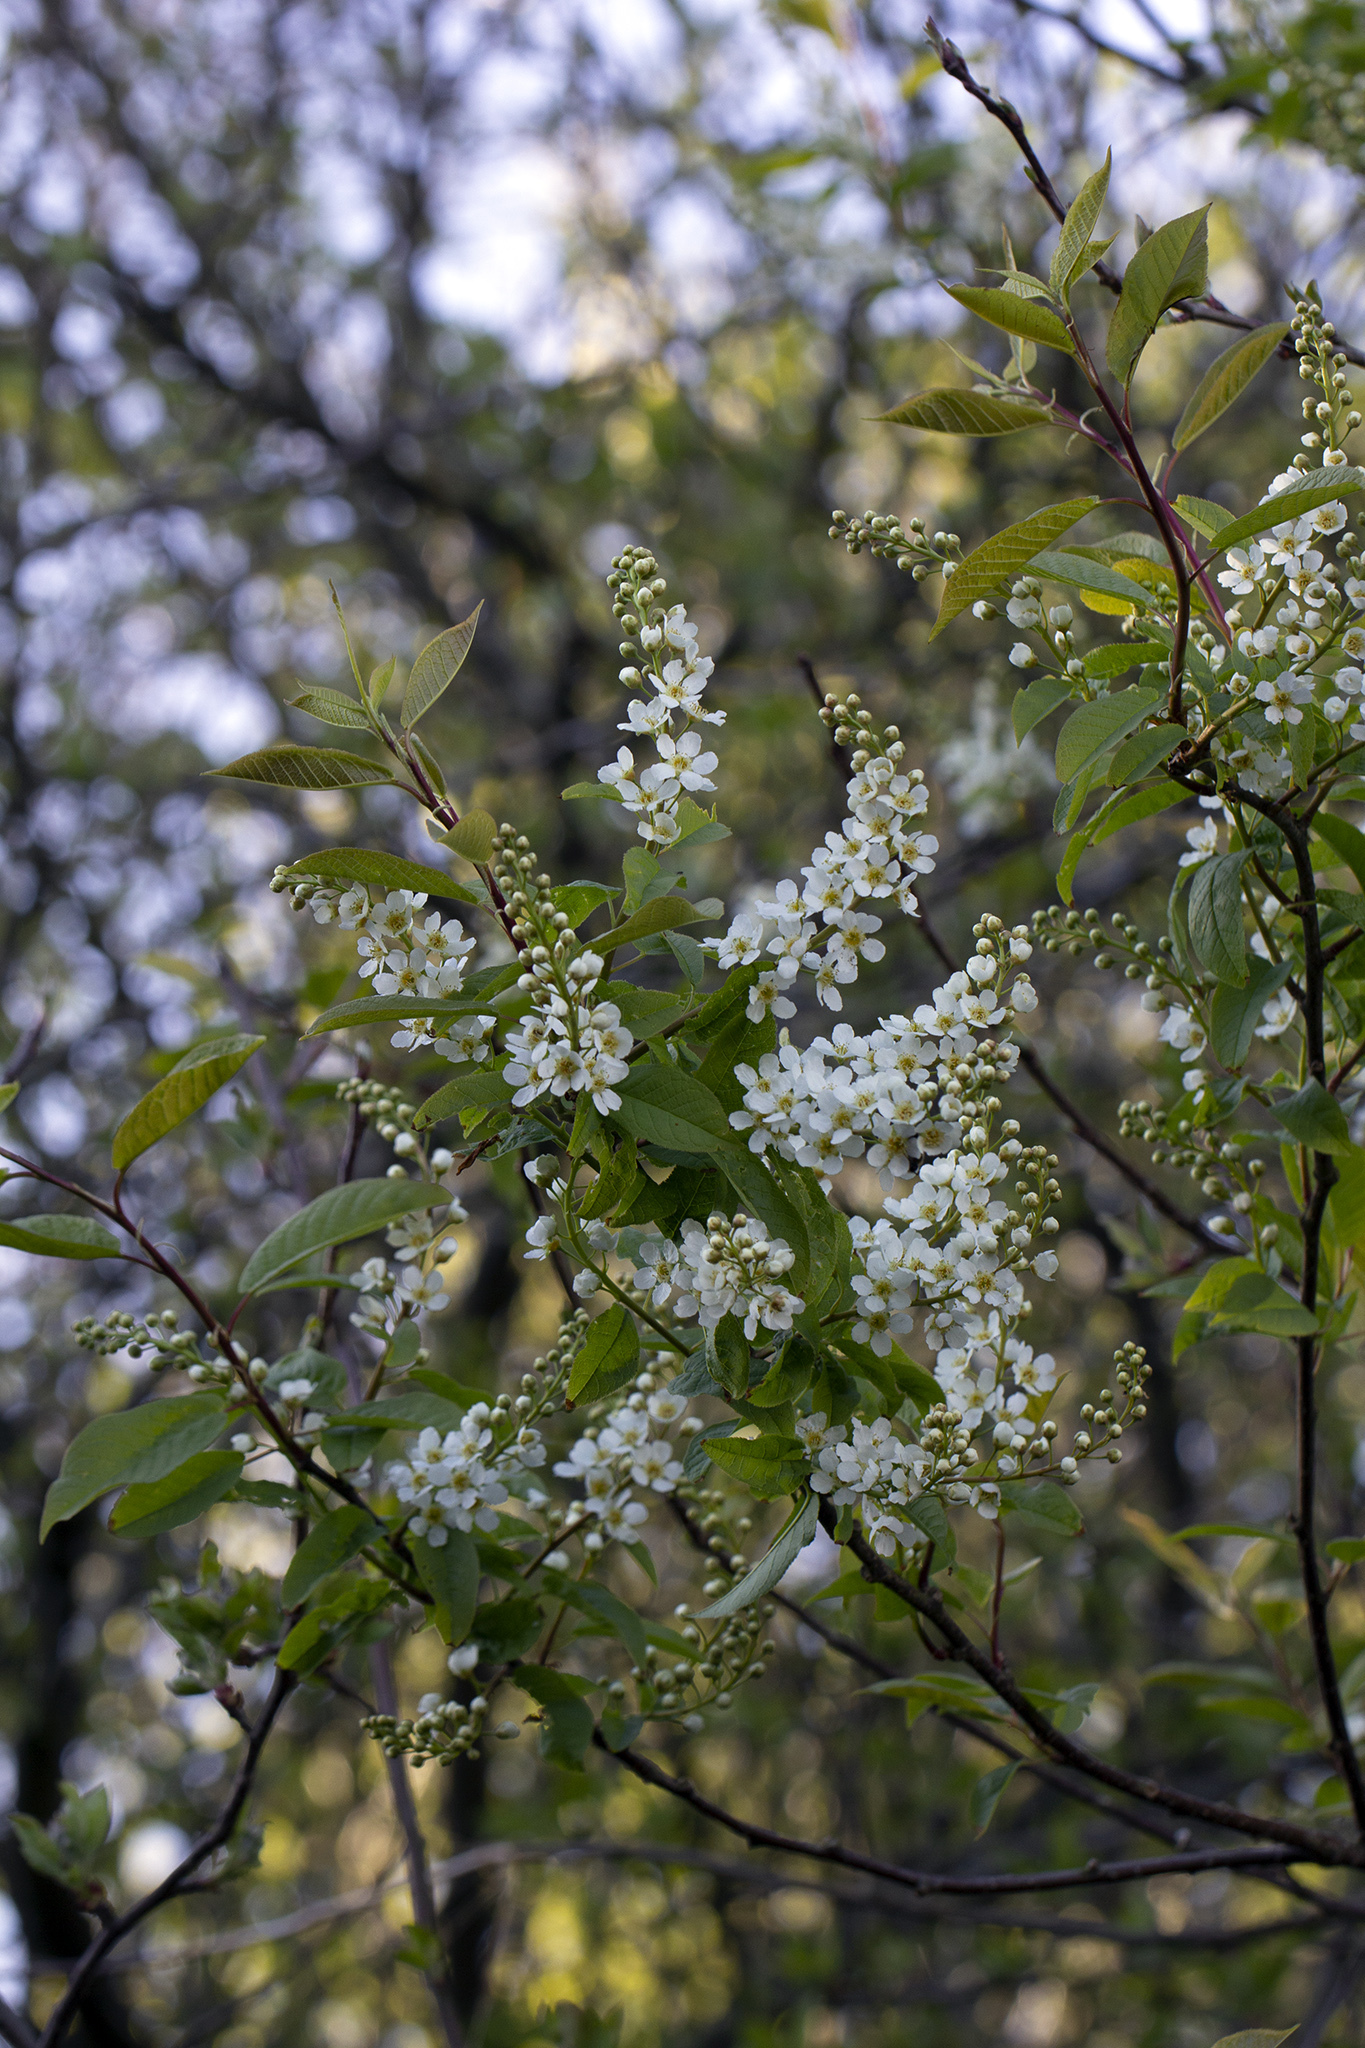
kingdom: Plantae
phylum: Tracheophyta
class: Magnoliopsida
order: Rosales
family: Rosaceae
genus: Prunus
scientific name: Prunus padus
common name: Bird cherry
